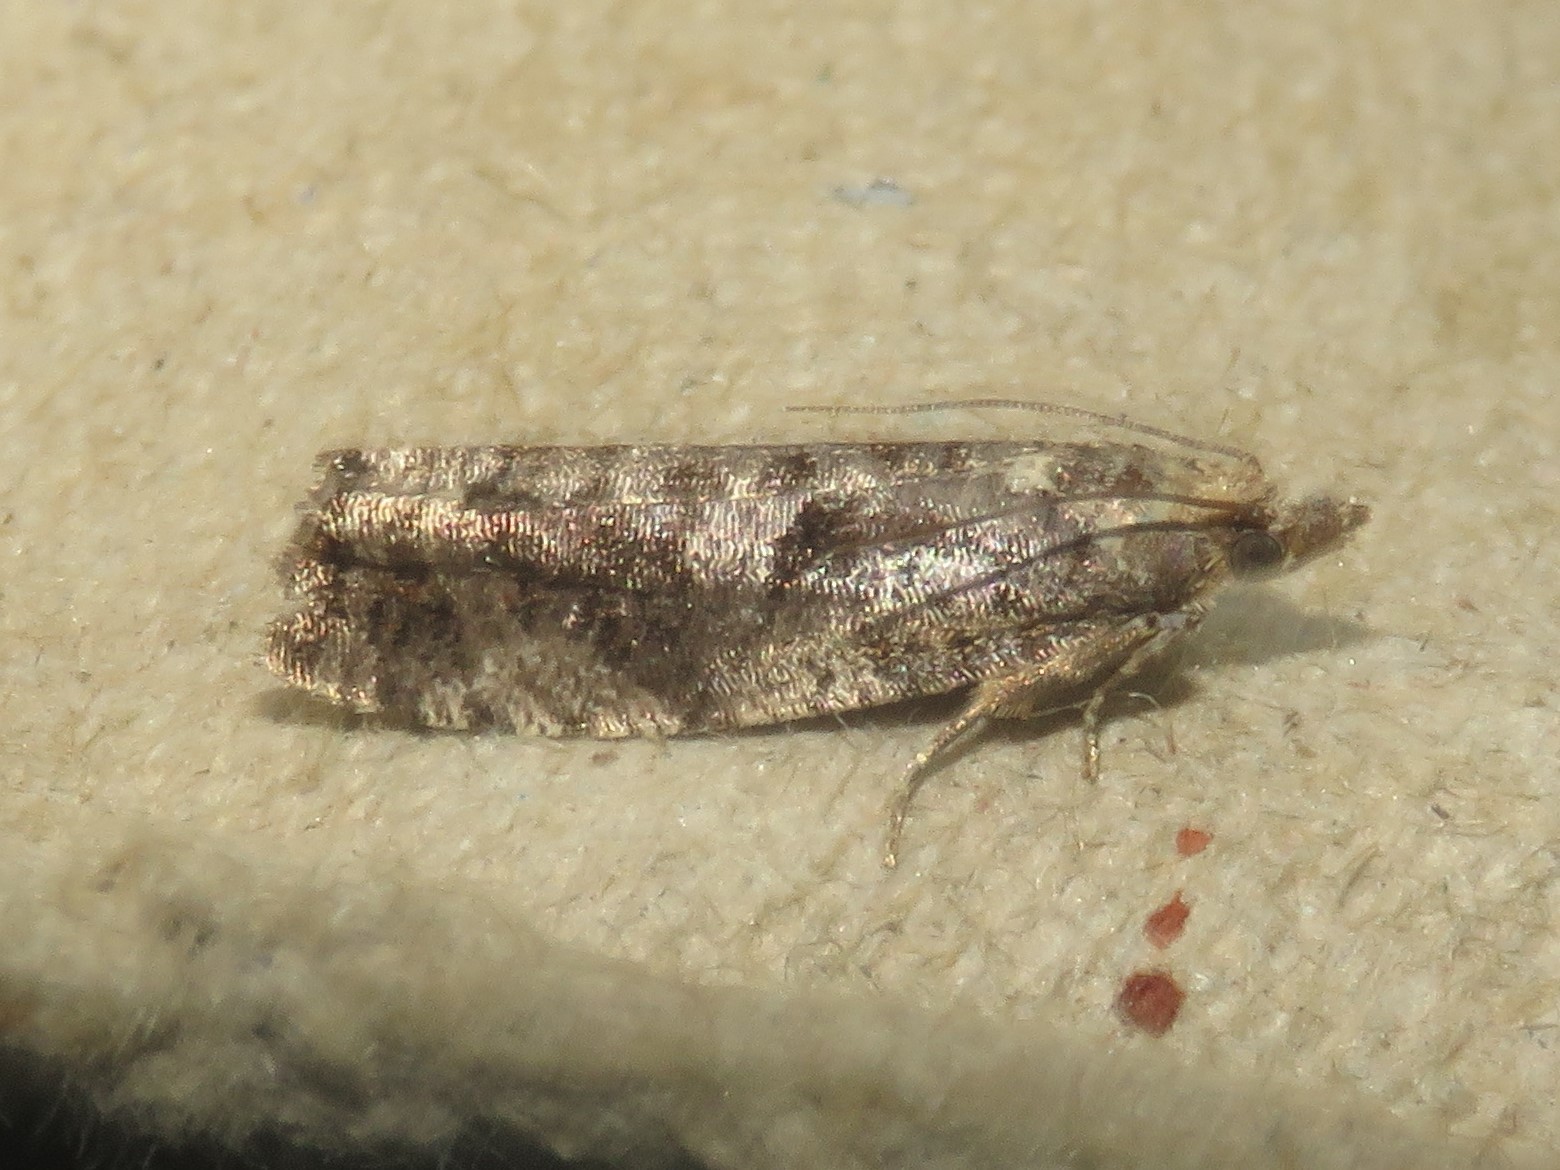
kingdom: Animalia
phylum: Arthropoda
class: Insecta
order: Lepidoptera
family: Tortricidae
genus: Epinotia
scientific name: Epinotia solandriana
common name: Variable bell
